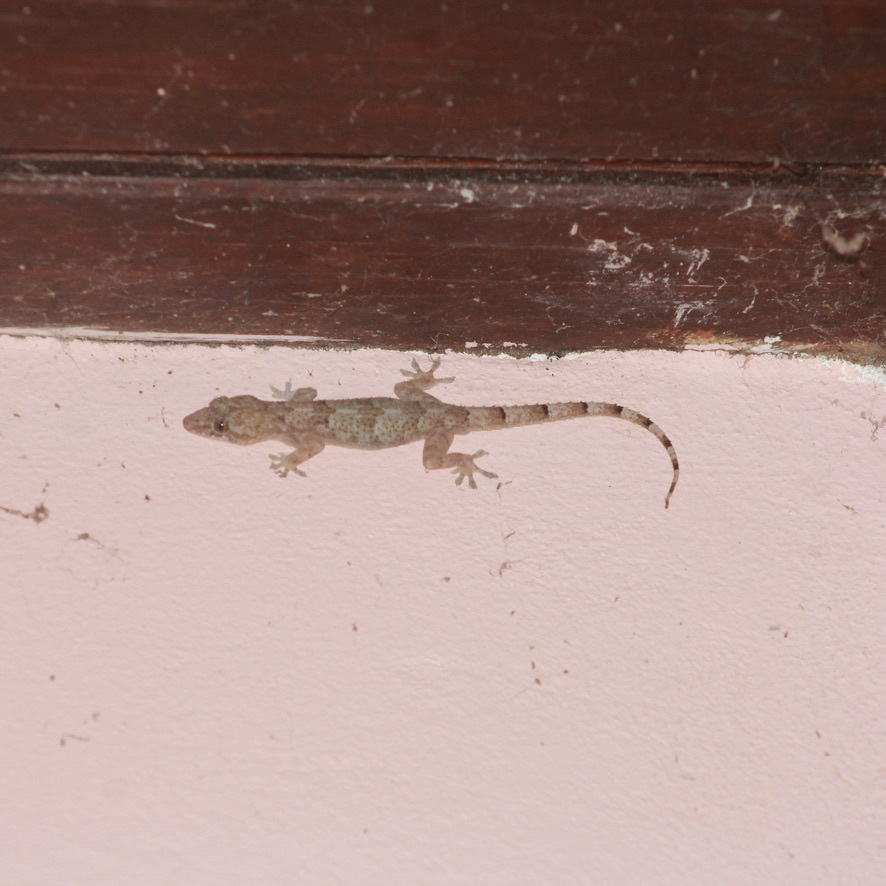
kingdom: Animalia
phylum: Chordata
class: Squamata
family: Gekkonidae
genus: Hemidactylus
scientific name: Hemidactylus mabouia
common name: House gecko
